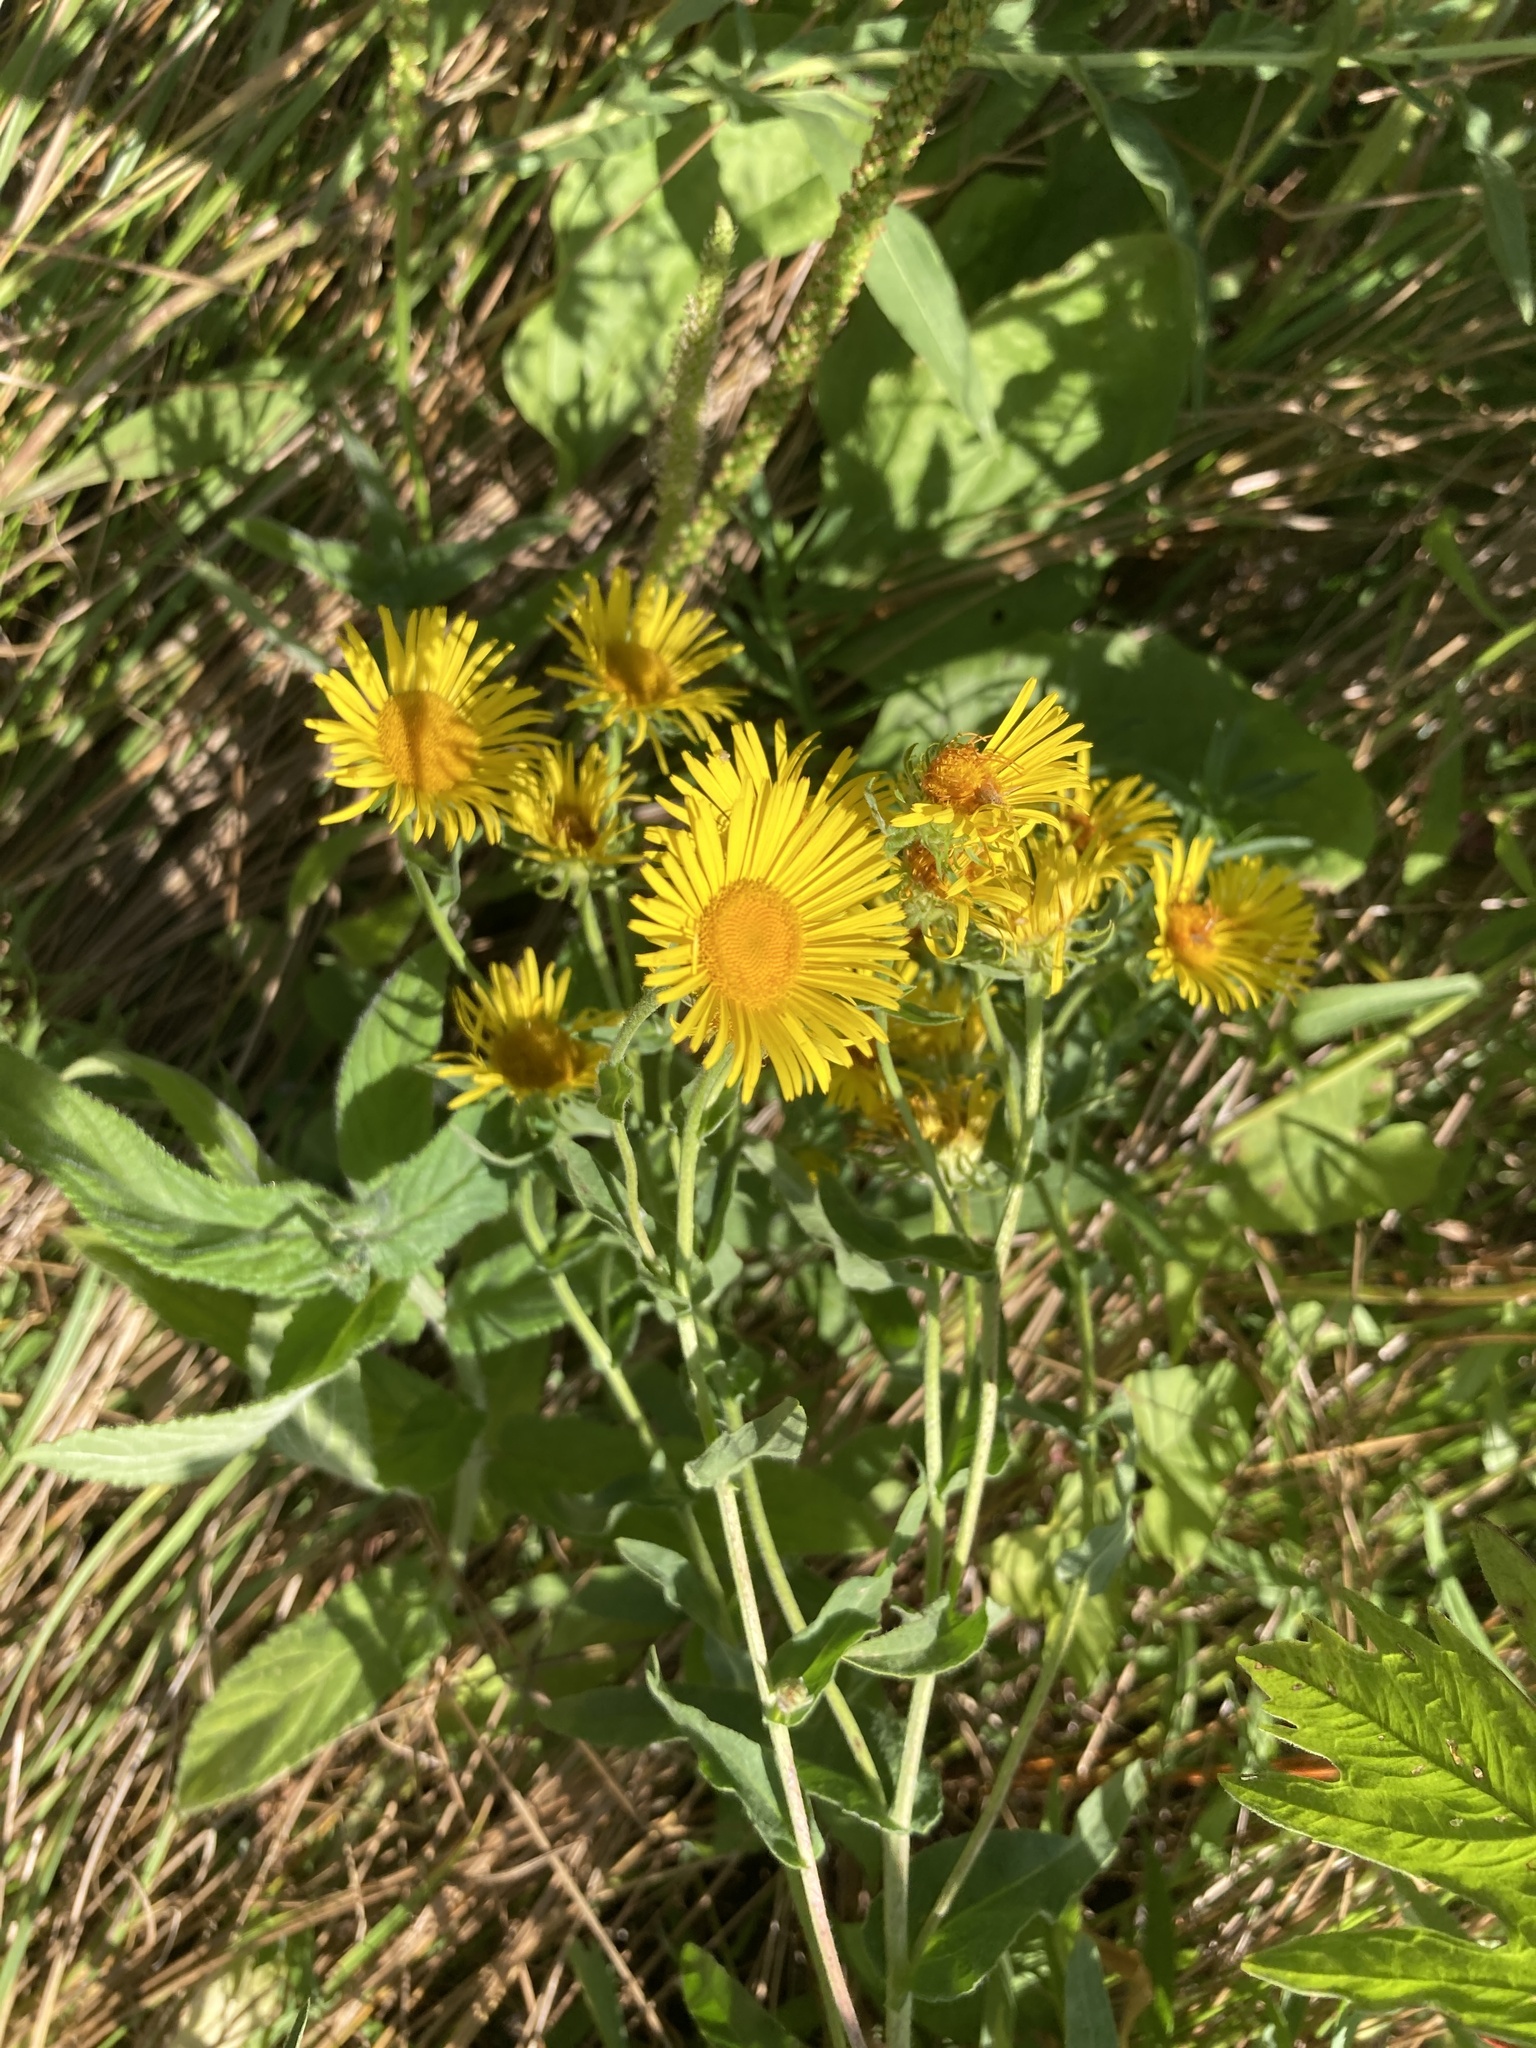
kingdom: Plantae
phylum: Tracheophyta
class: Magnoliopsida
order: Asterales
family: Asteraceae
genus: Pentanema
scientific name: Pentanema britannicum
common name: British elecampane
